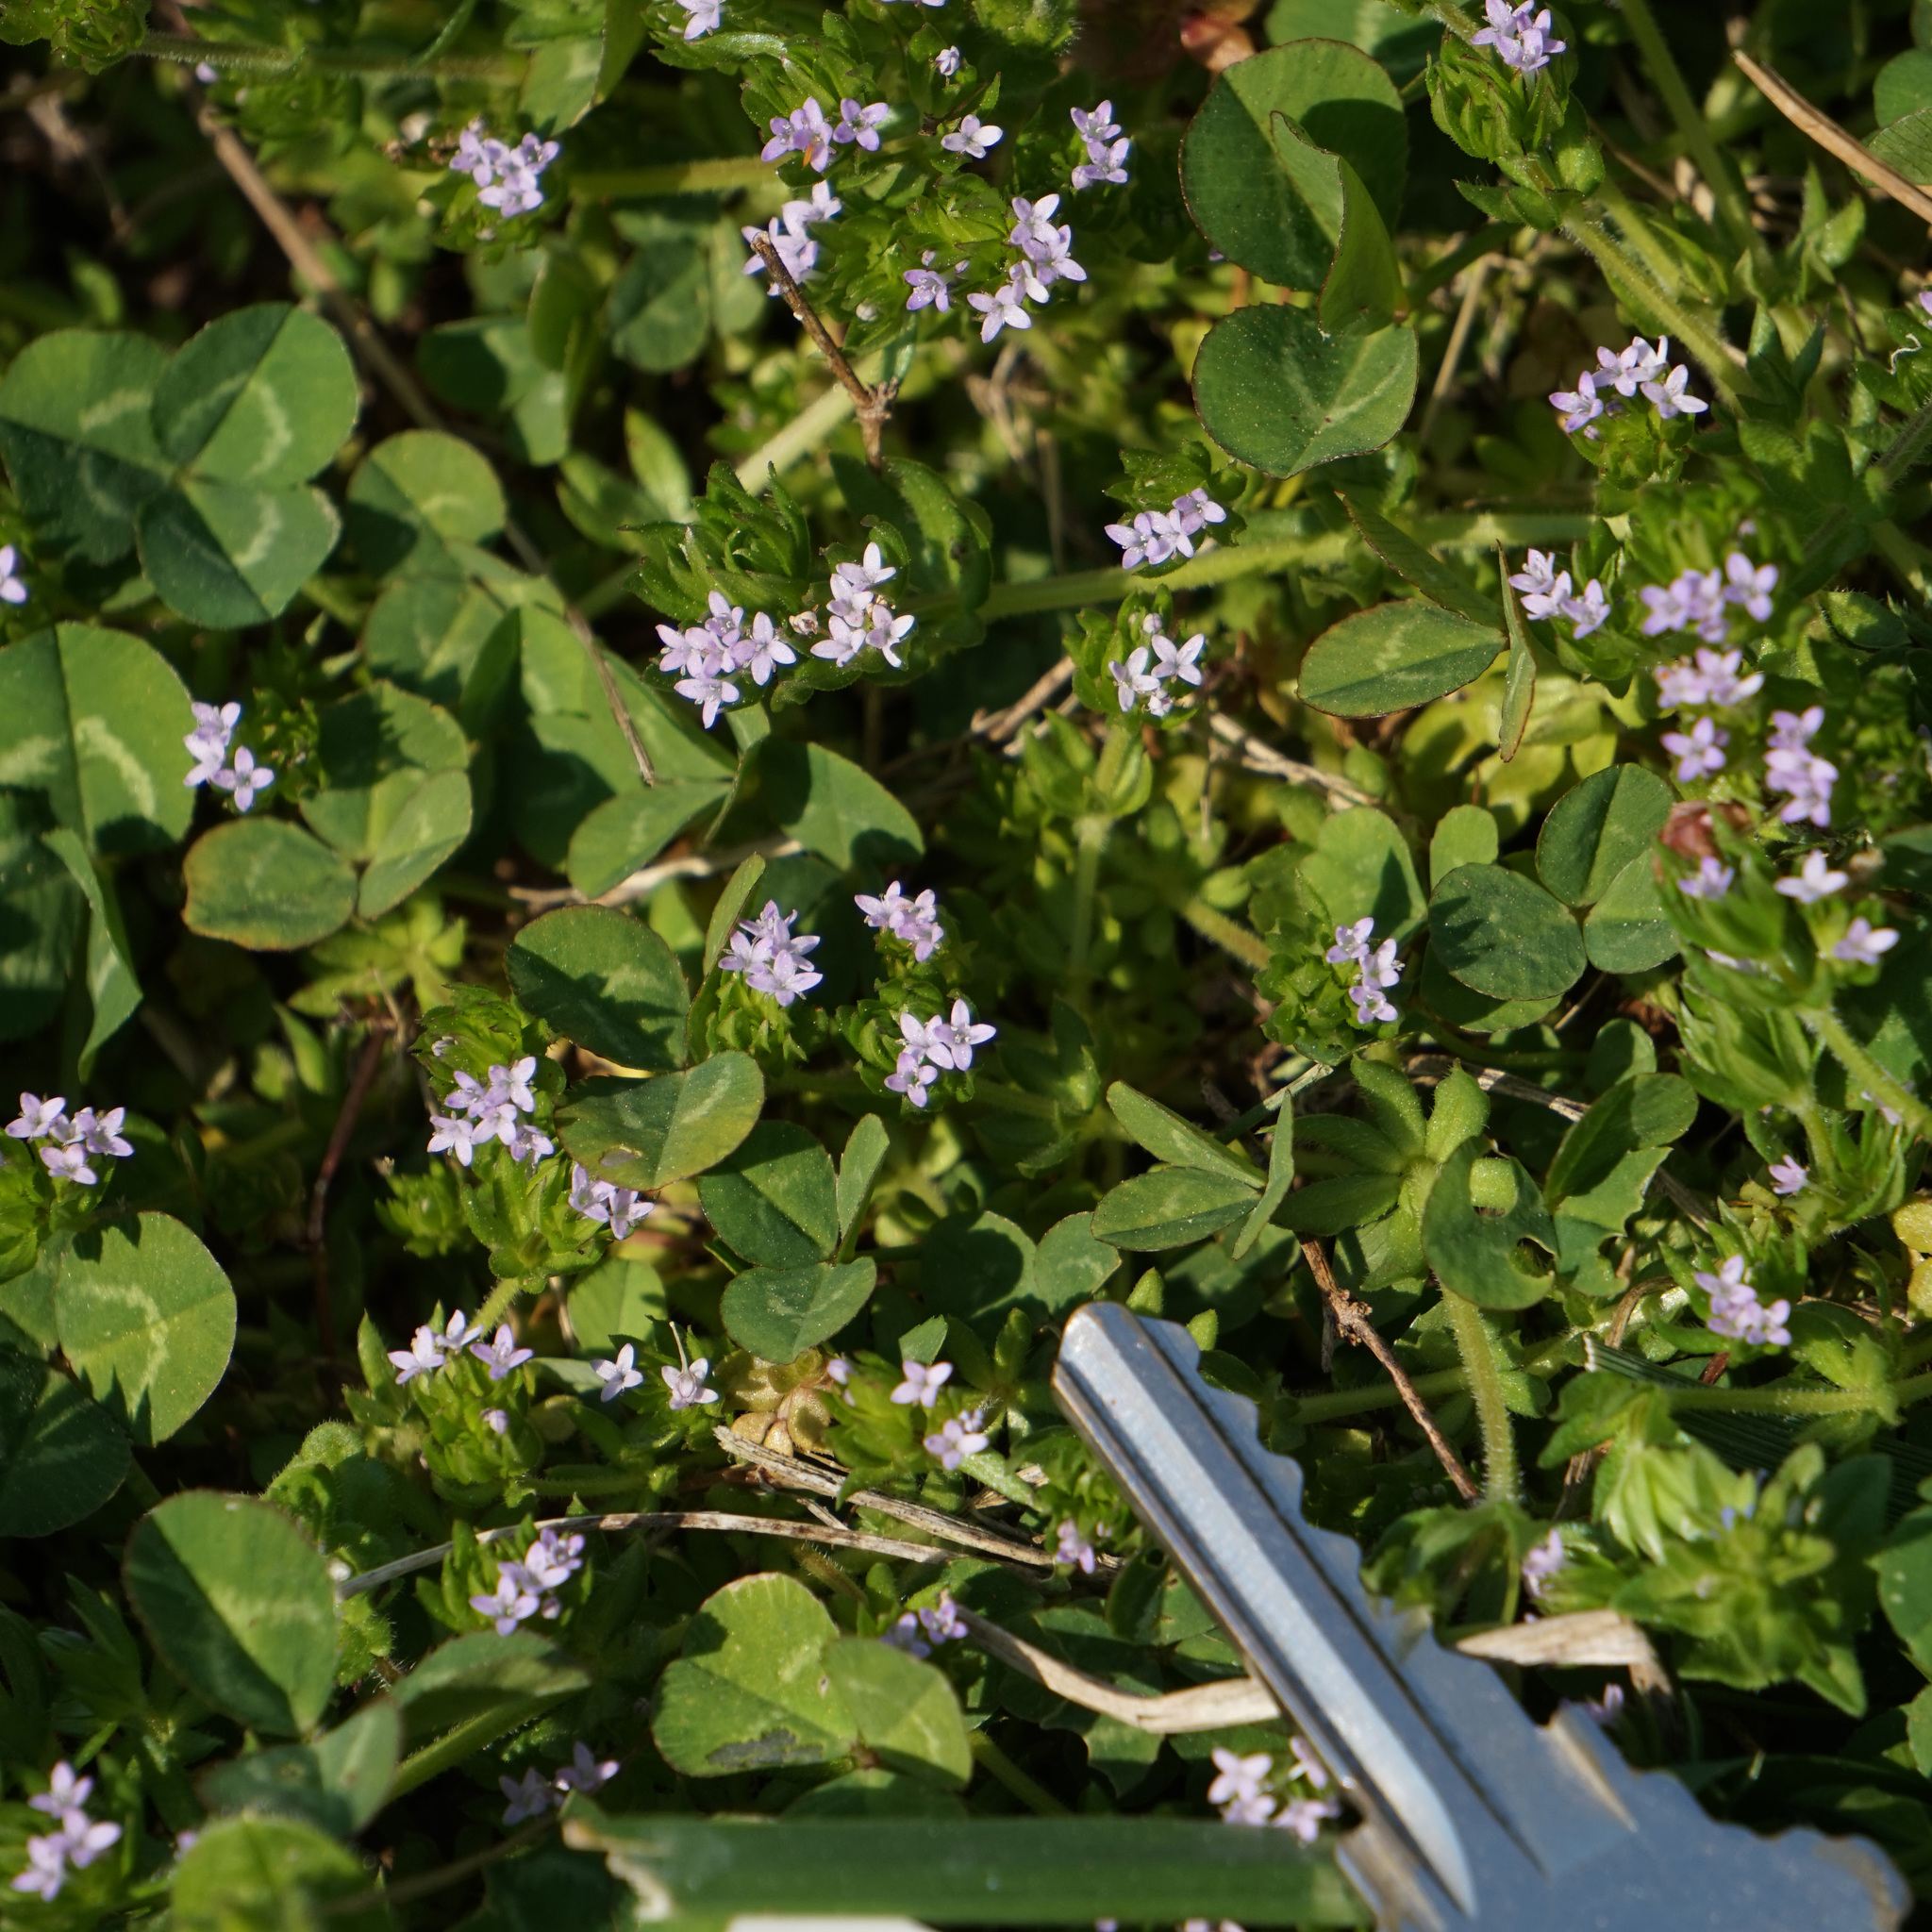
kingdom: Plantae
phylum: Tracheophyta
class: Magnoliopsida
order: Gentianales
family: Rubiaceae
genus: Sherardia
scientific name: Sherardia arvensis
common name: Field madder
